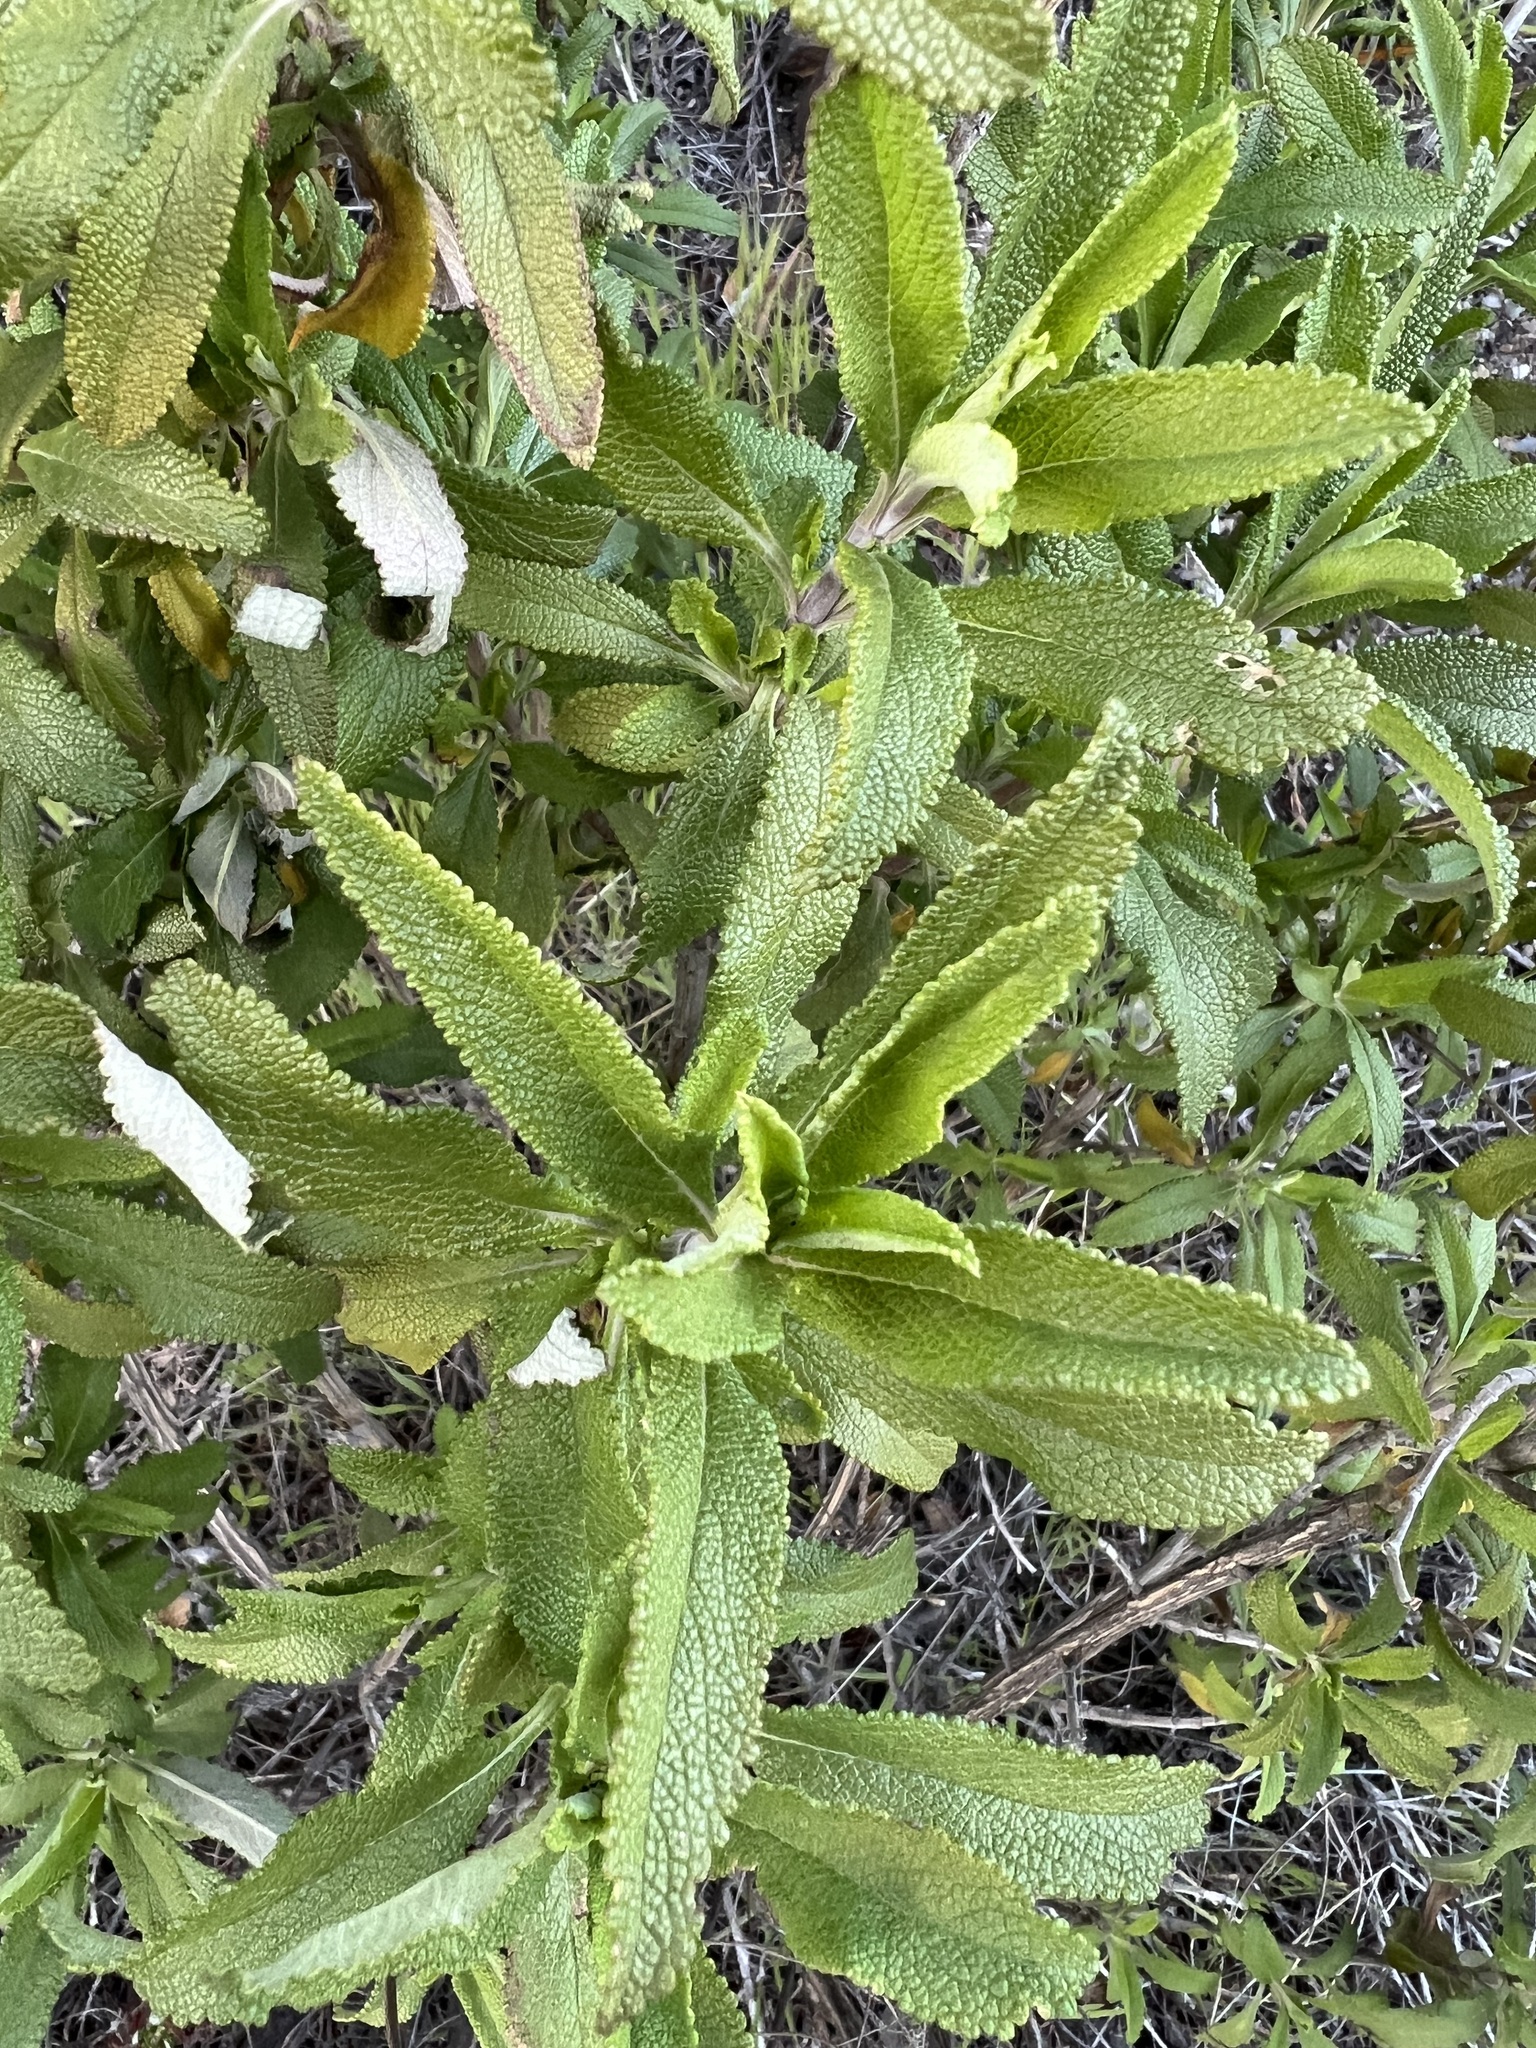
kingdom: Plantae
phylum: Tracheophyta
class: Magnoliopsida
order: Lamiales
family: Lamiaceae
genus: Salvia
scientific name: Salvia mellifera
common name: Black sage
